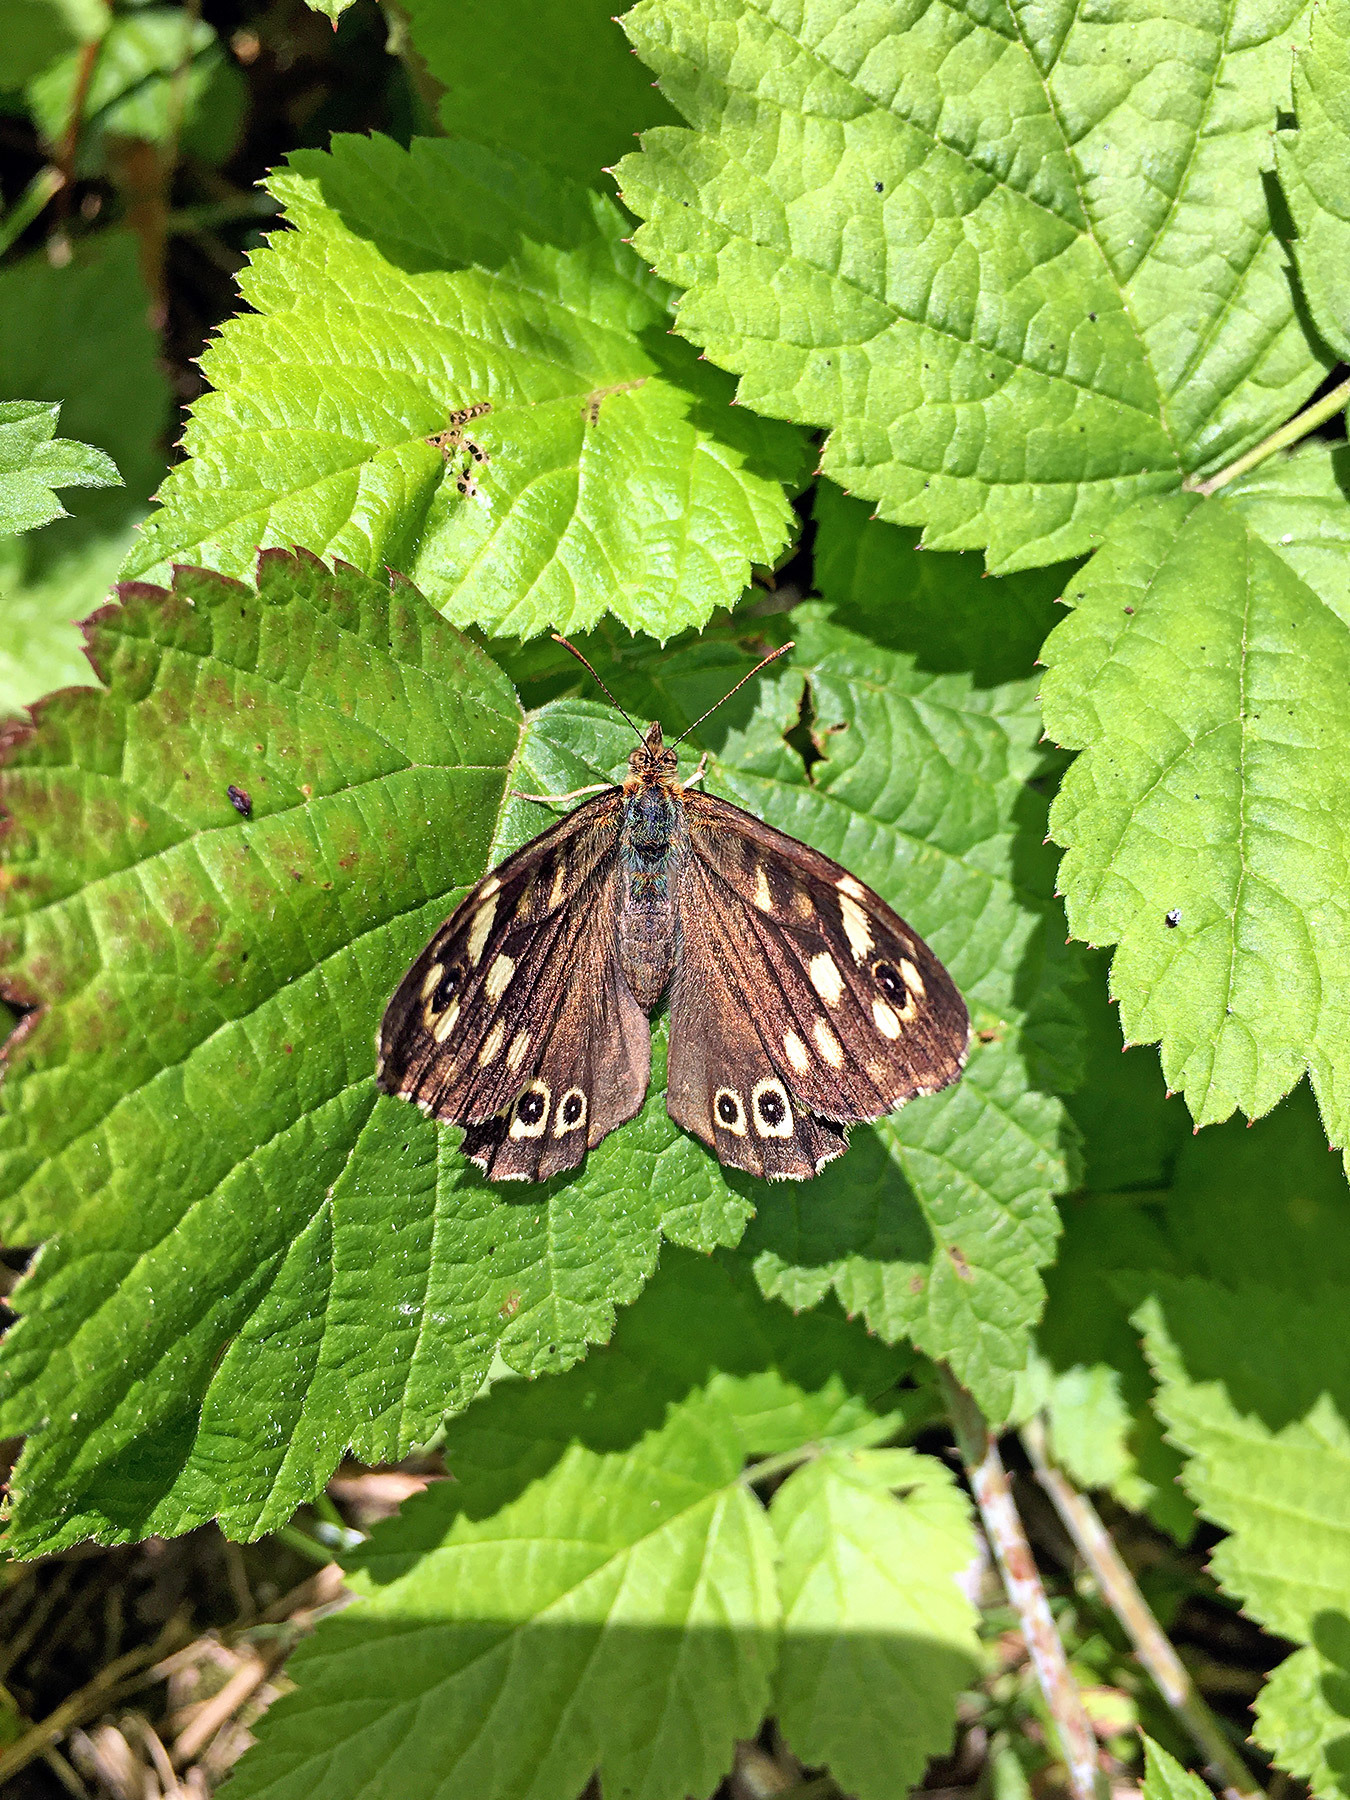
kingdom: Animalia
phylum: Arthropoda
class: Insecta
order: Lepidoptera
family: Nymphalidae
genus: Pararge
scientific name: Pararge aegeria
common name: Speckled wood
